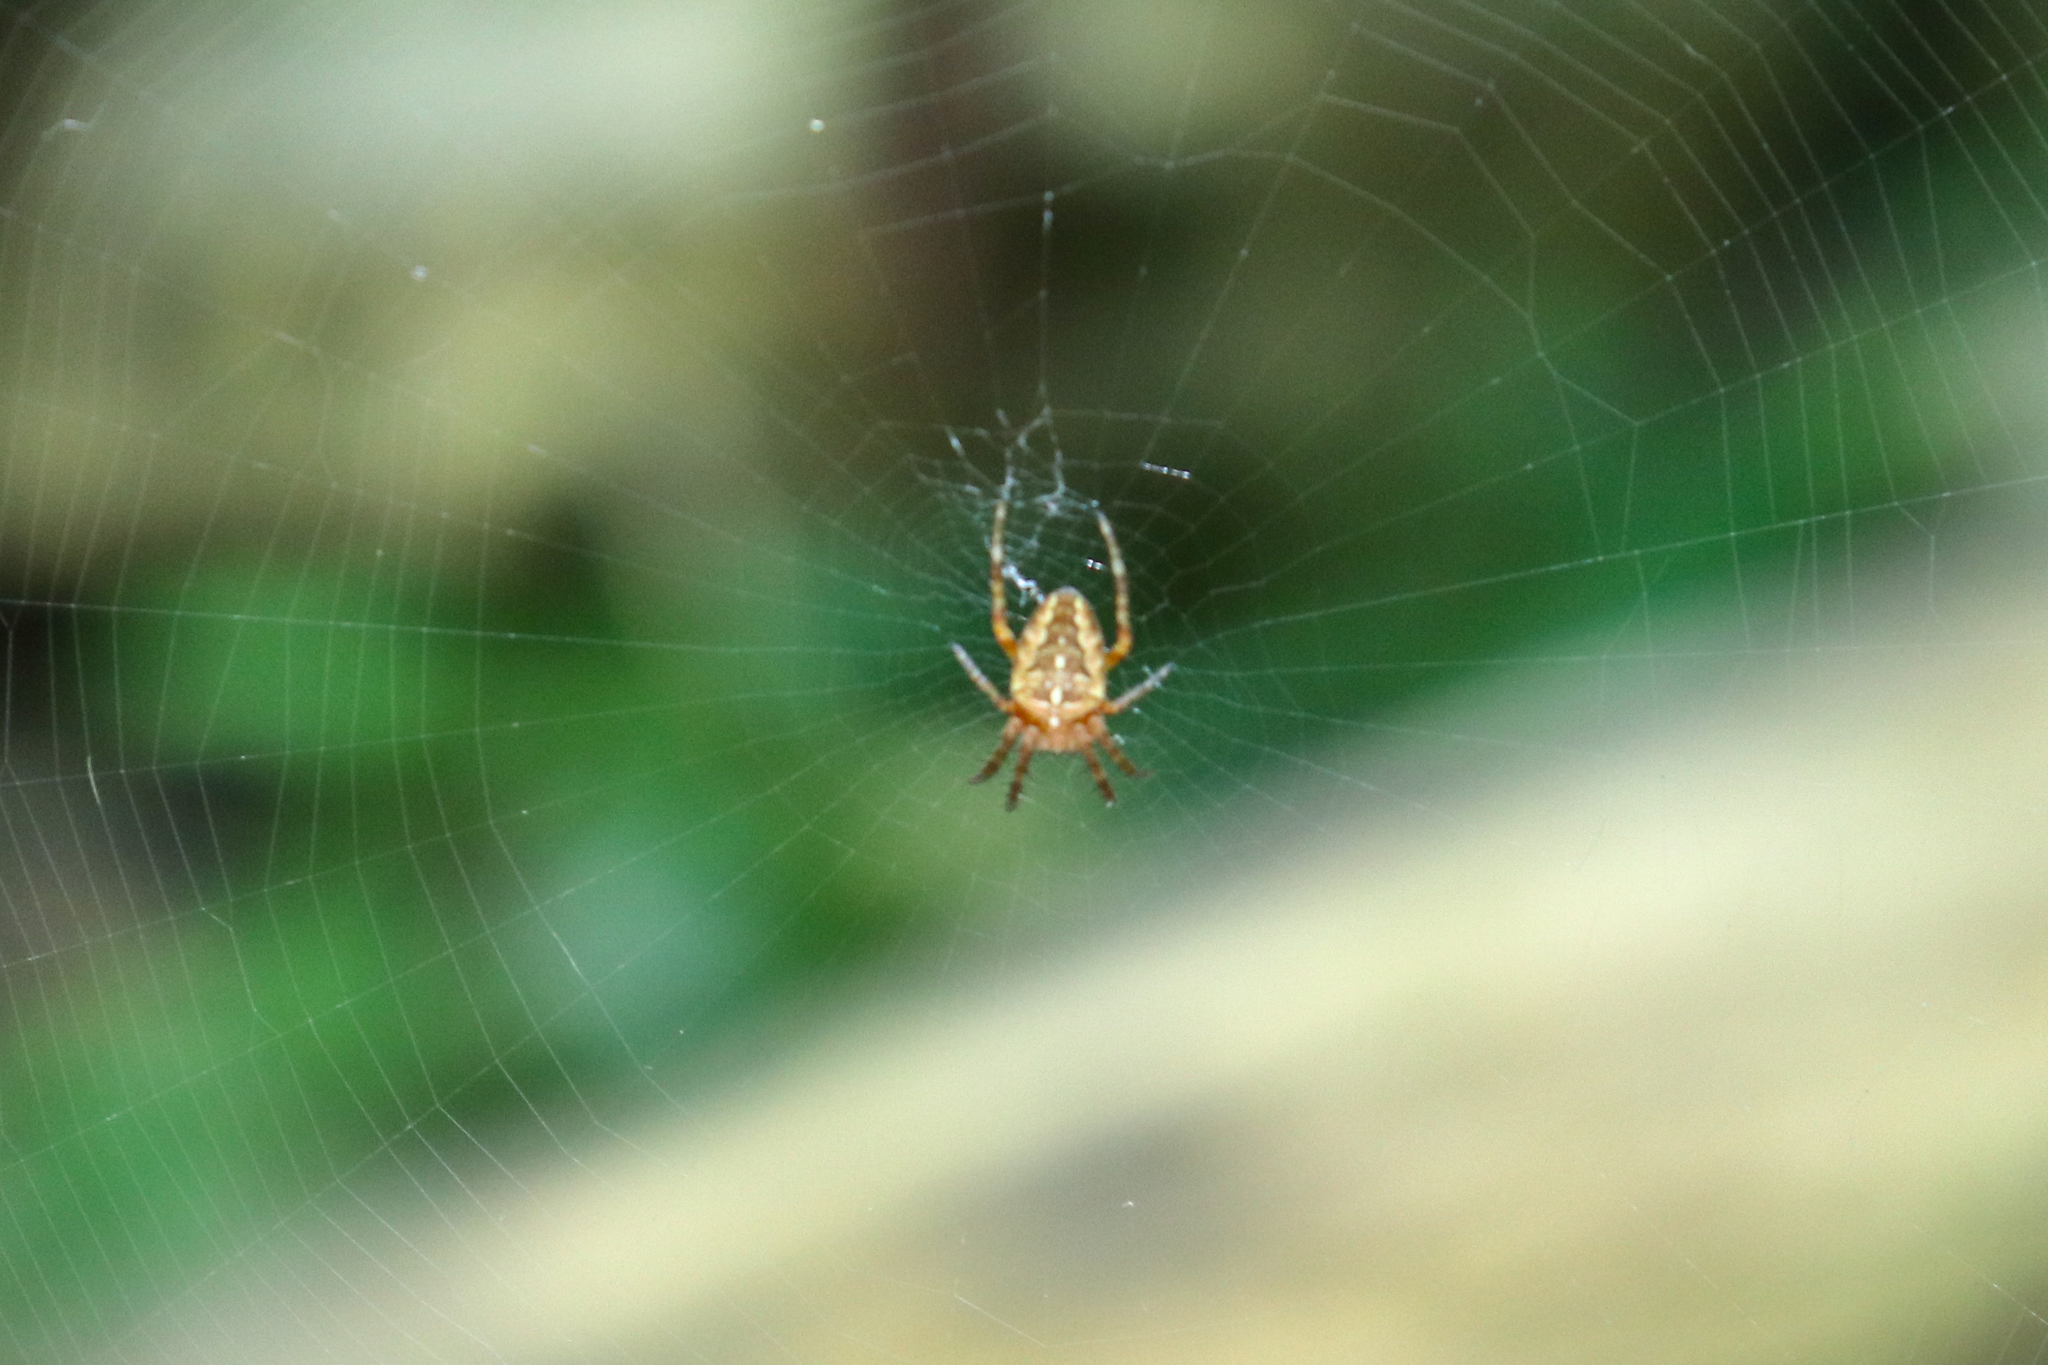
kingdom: Animalia
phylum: Arthropoda
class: Arachnida
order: Araneae
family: Araneidae
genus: Araneus
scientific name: Araneus diadematus
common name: Cross orbweaver
